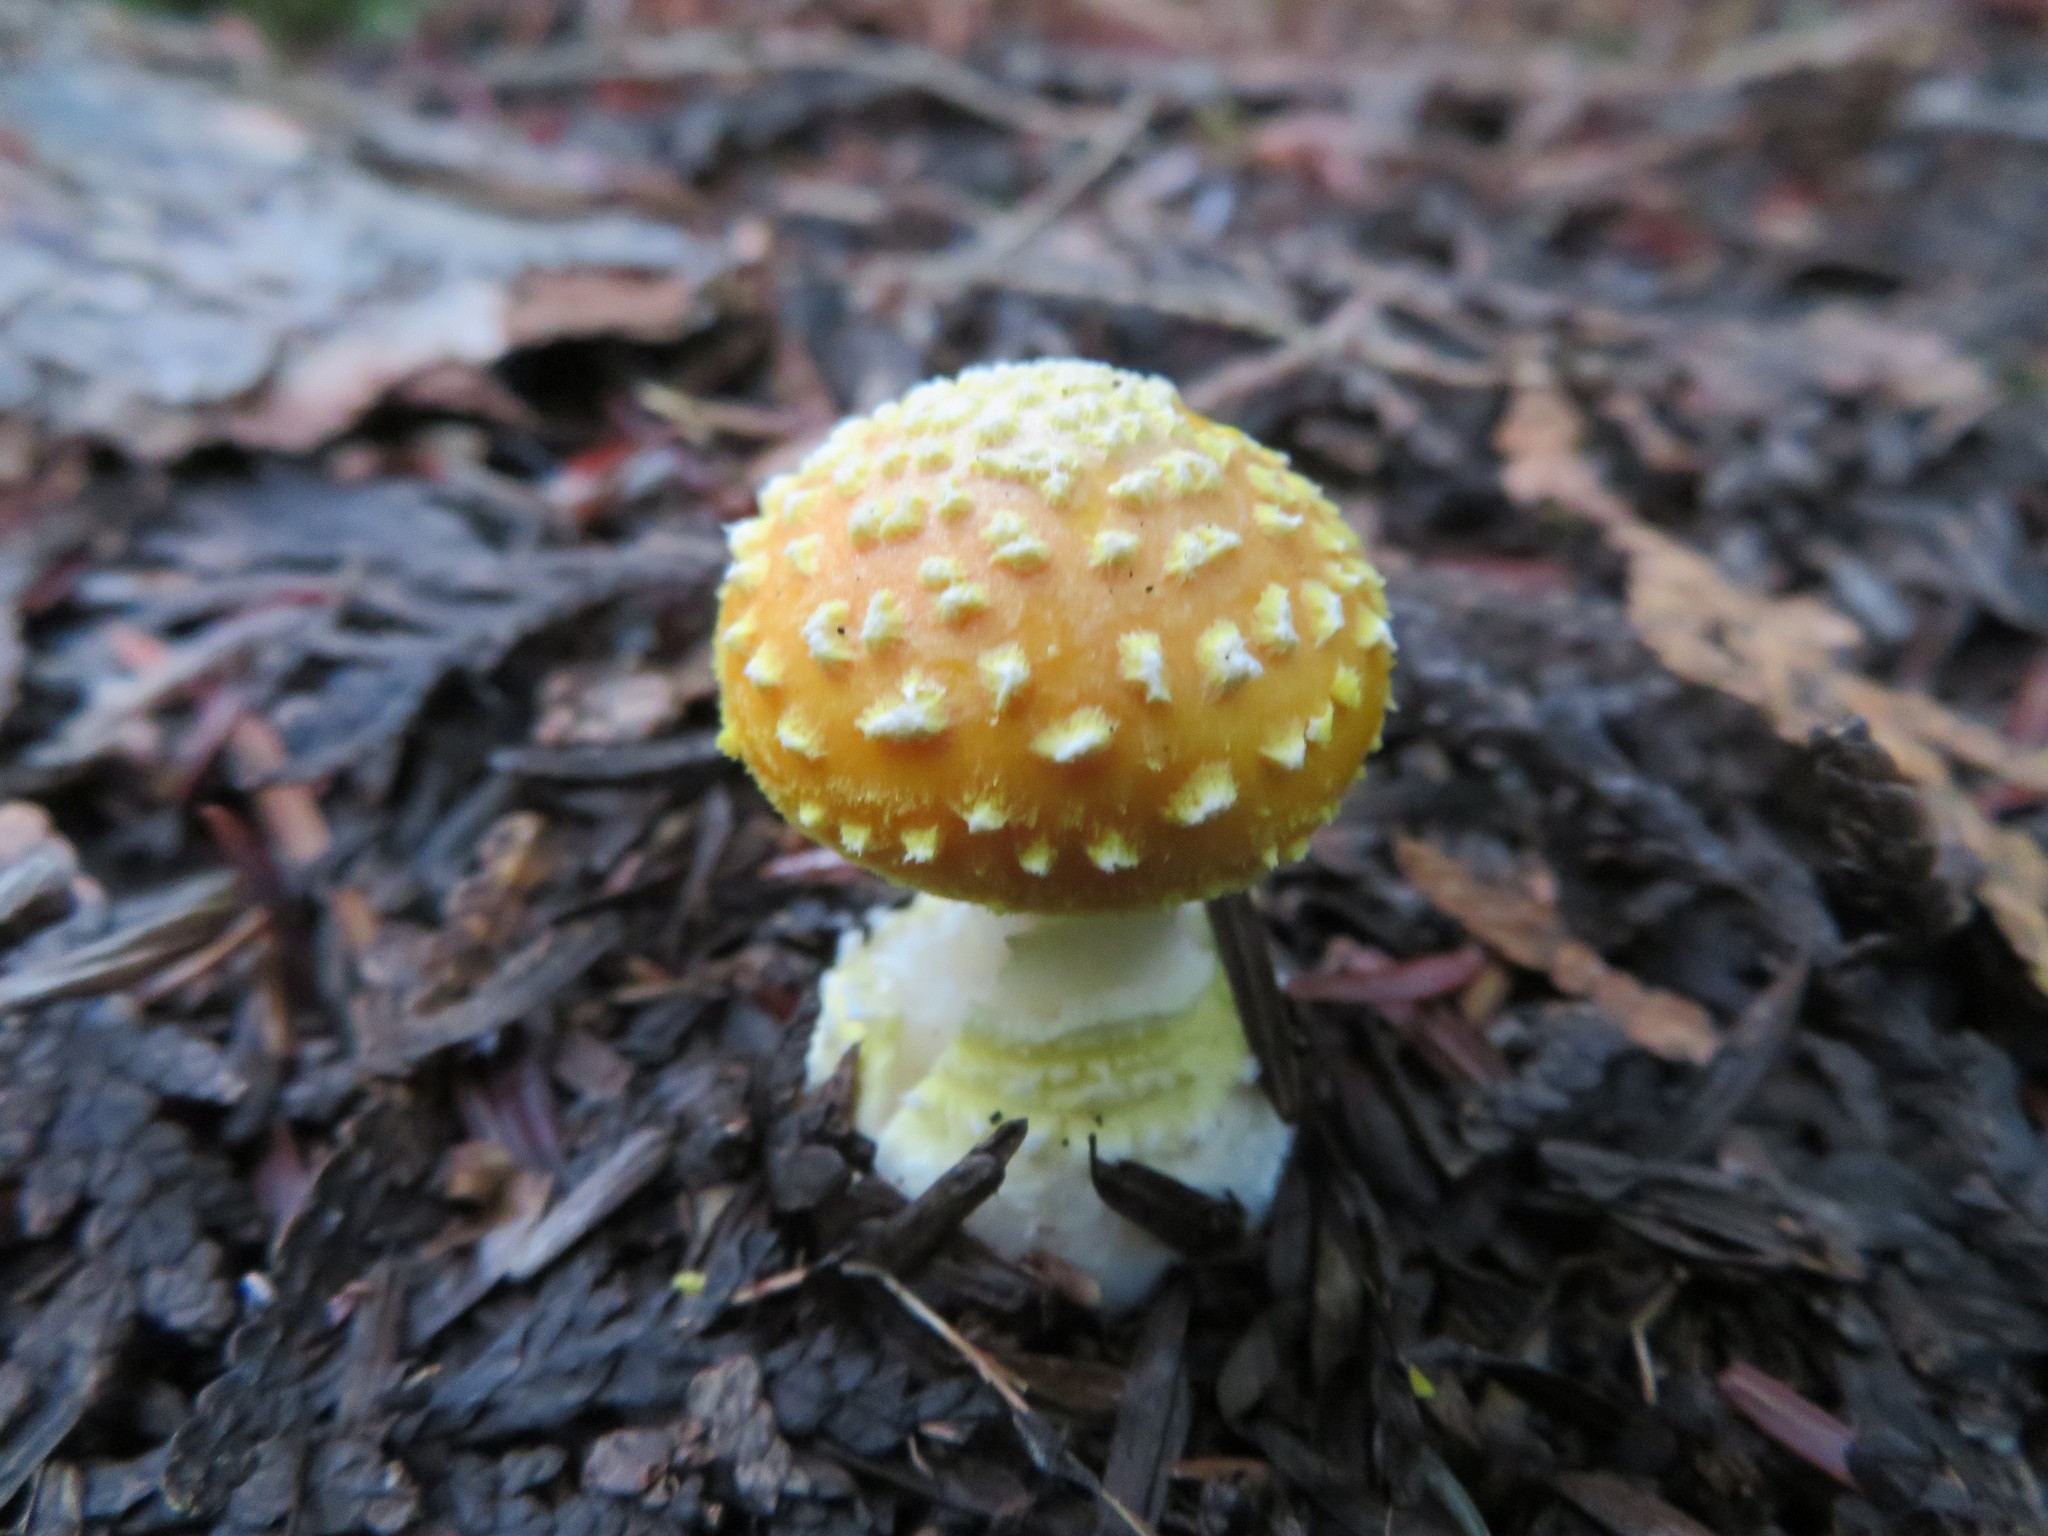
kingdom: Fungi
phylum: Basidiomycota
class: Agaricomycetes
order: Agaricales
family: Amanitaceae
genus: Amanita
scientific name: Amanita flavoconia
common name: Yellow patches
